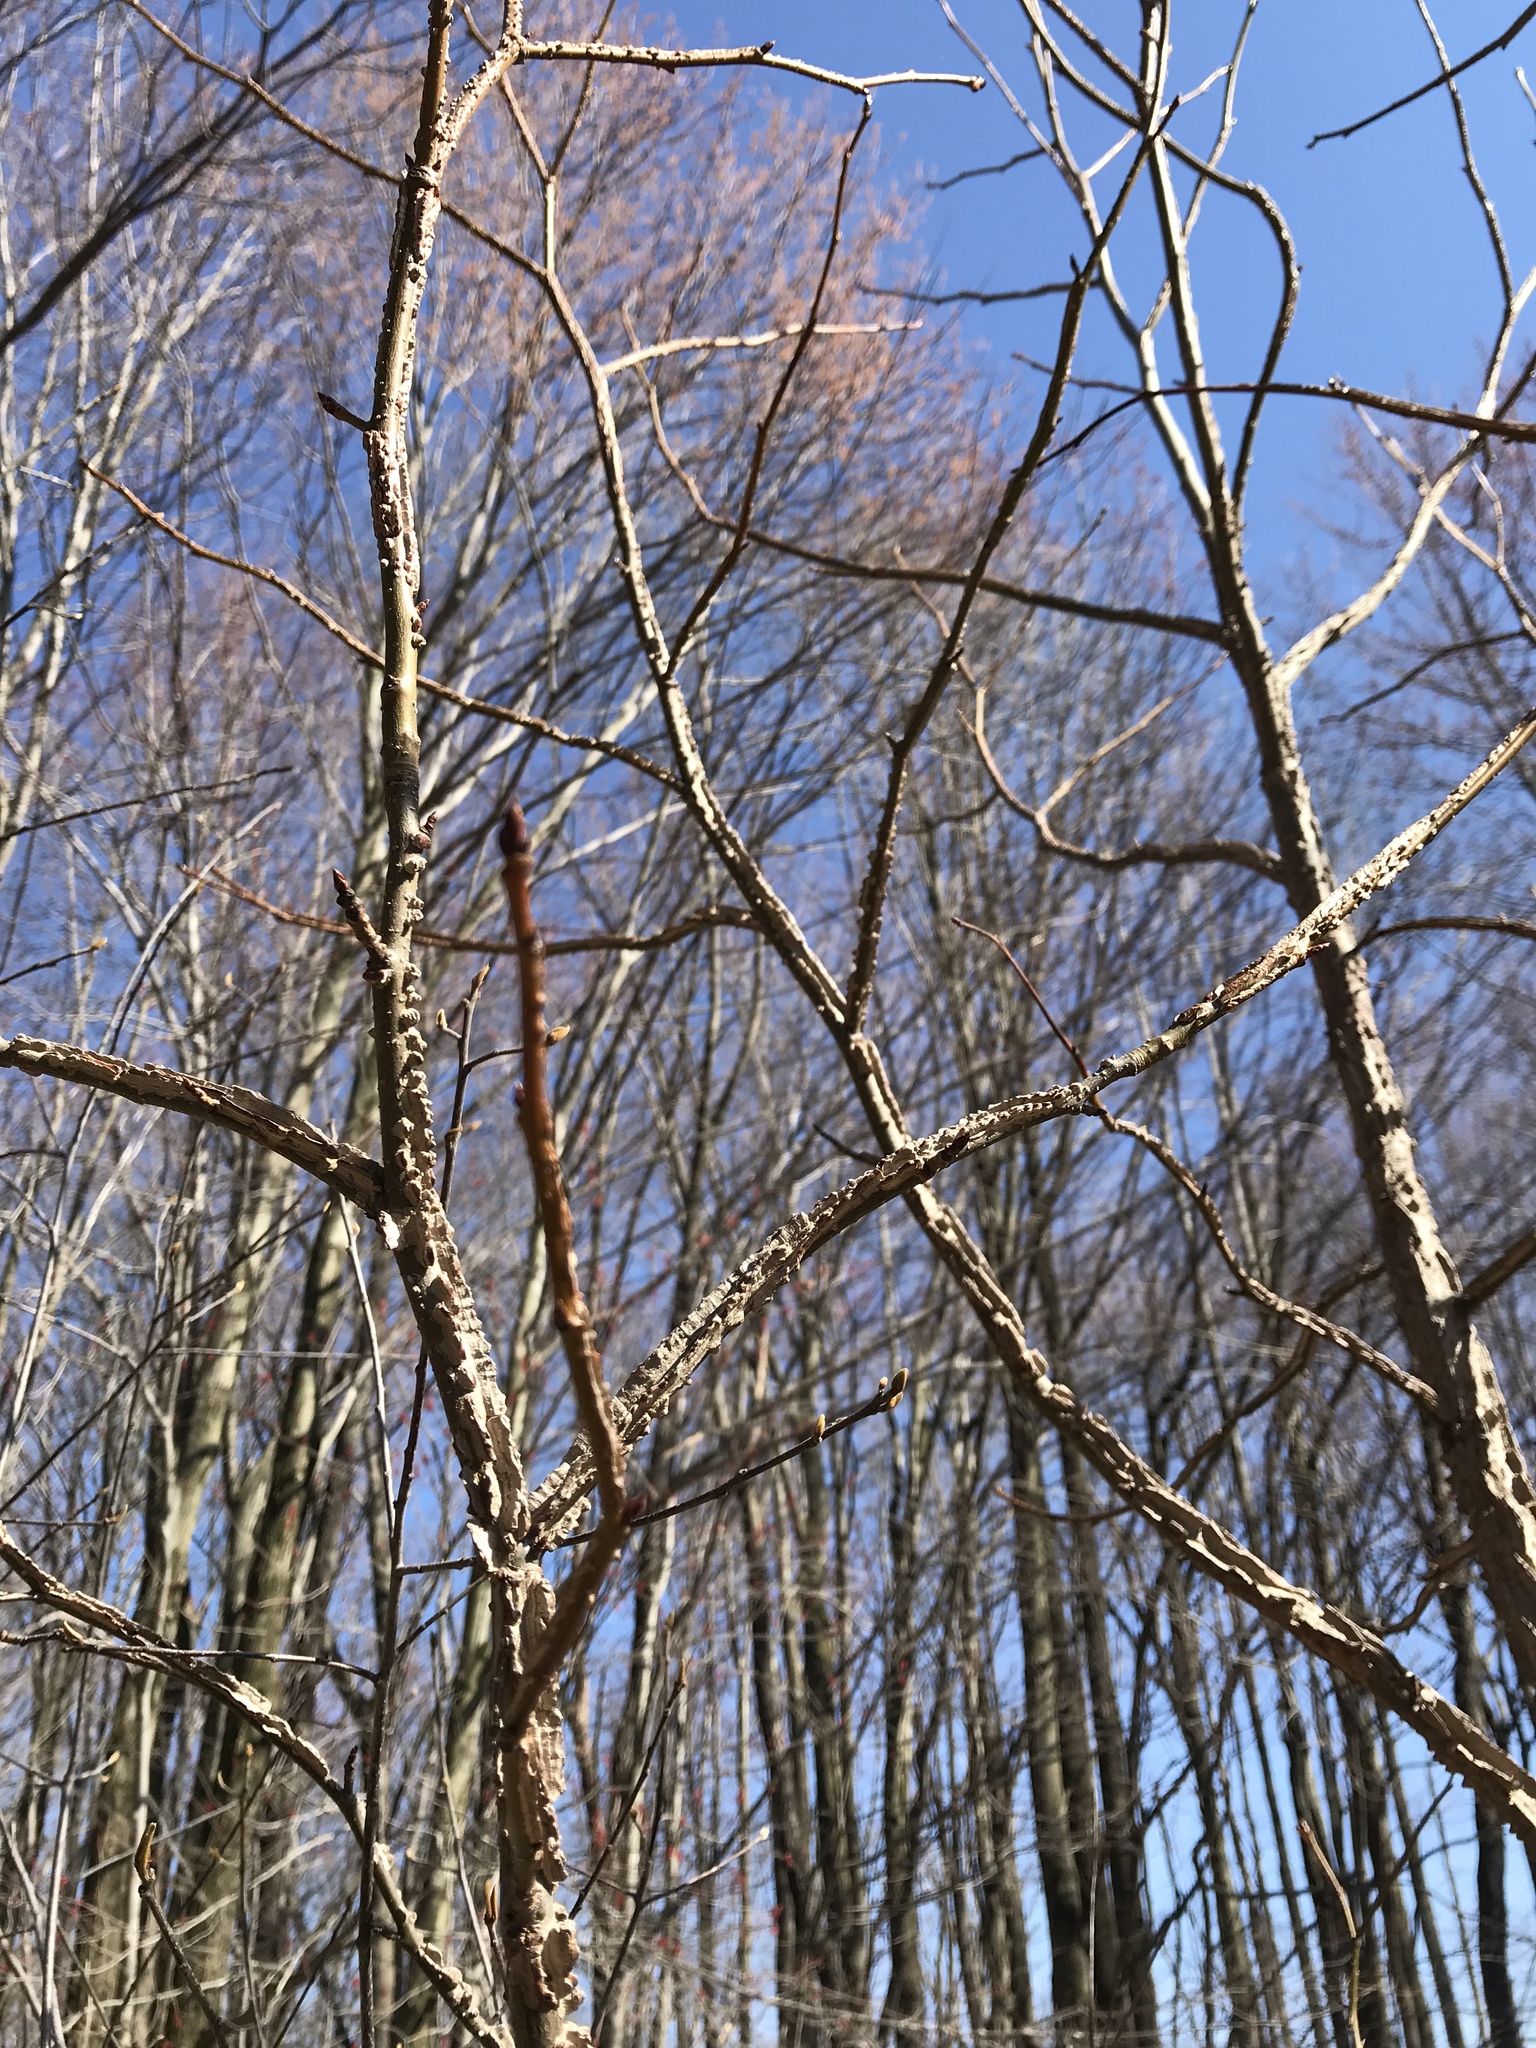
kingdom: Plantae
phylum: Tracheophyta
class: Magnoliopsida
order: Saxifragales
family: Altingiaceae
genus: Liquidambar
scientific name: Liquidambar styraciflua
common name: Sweet gum
